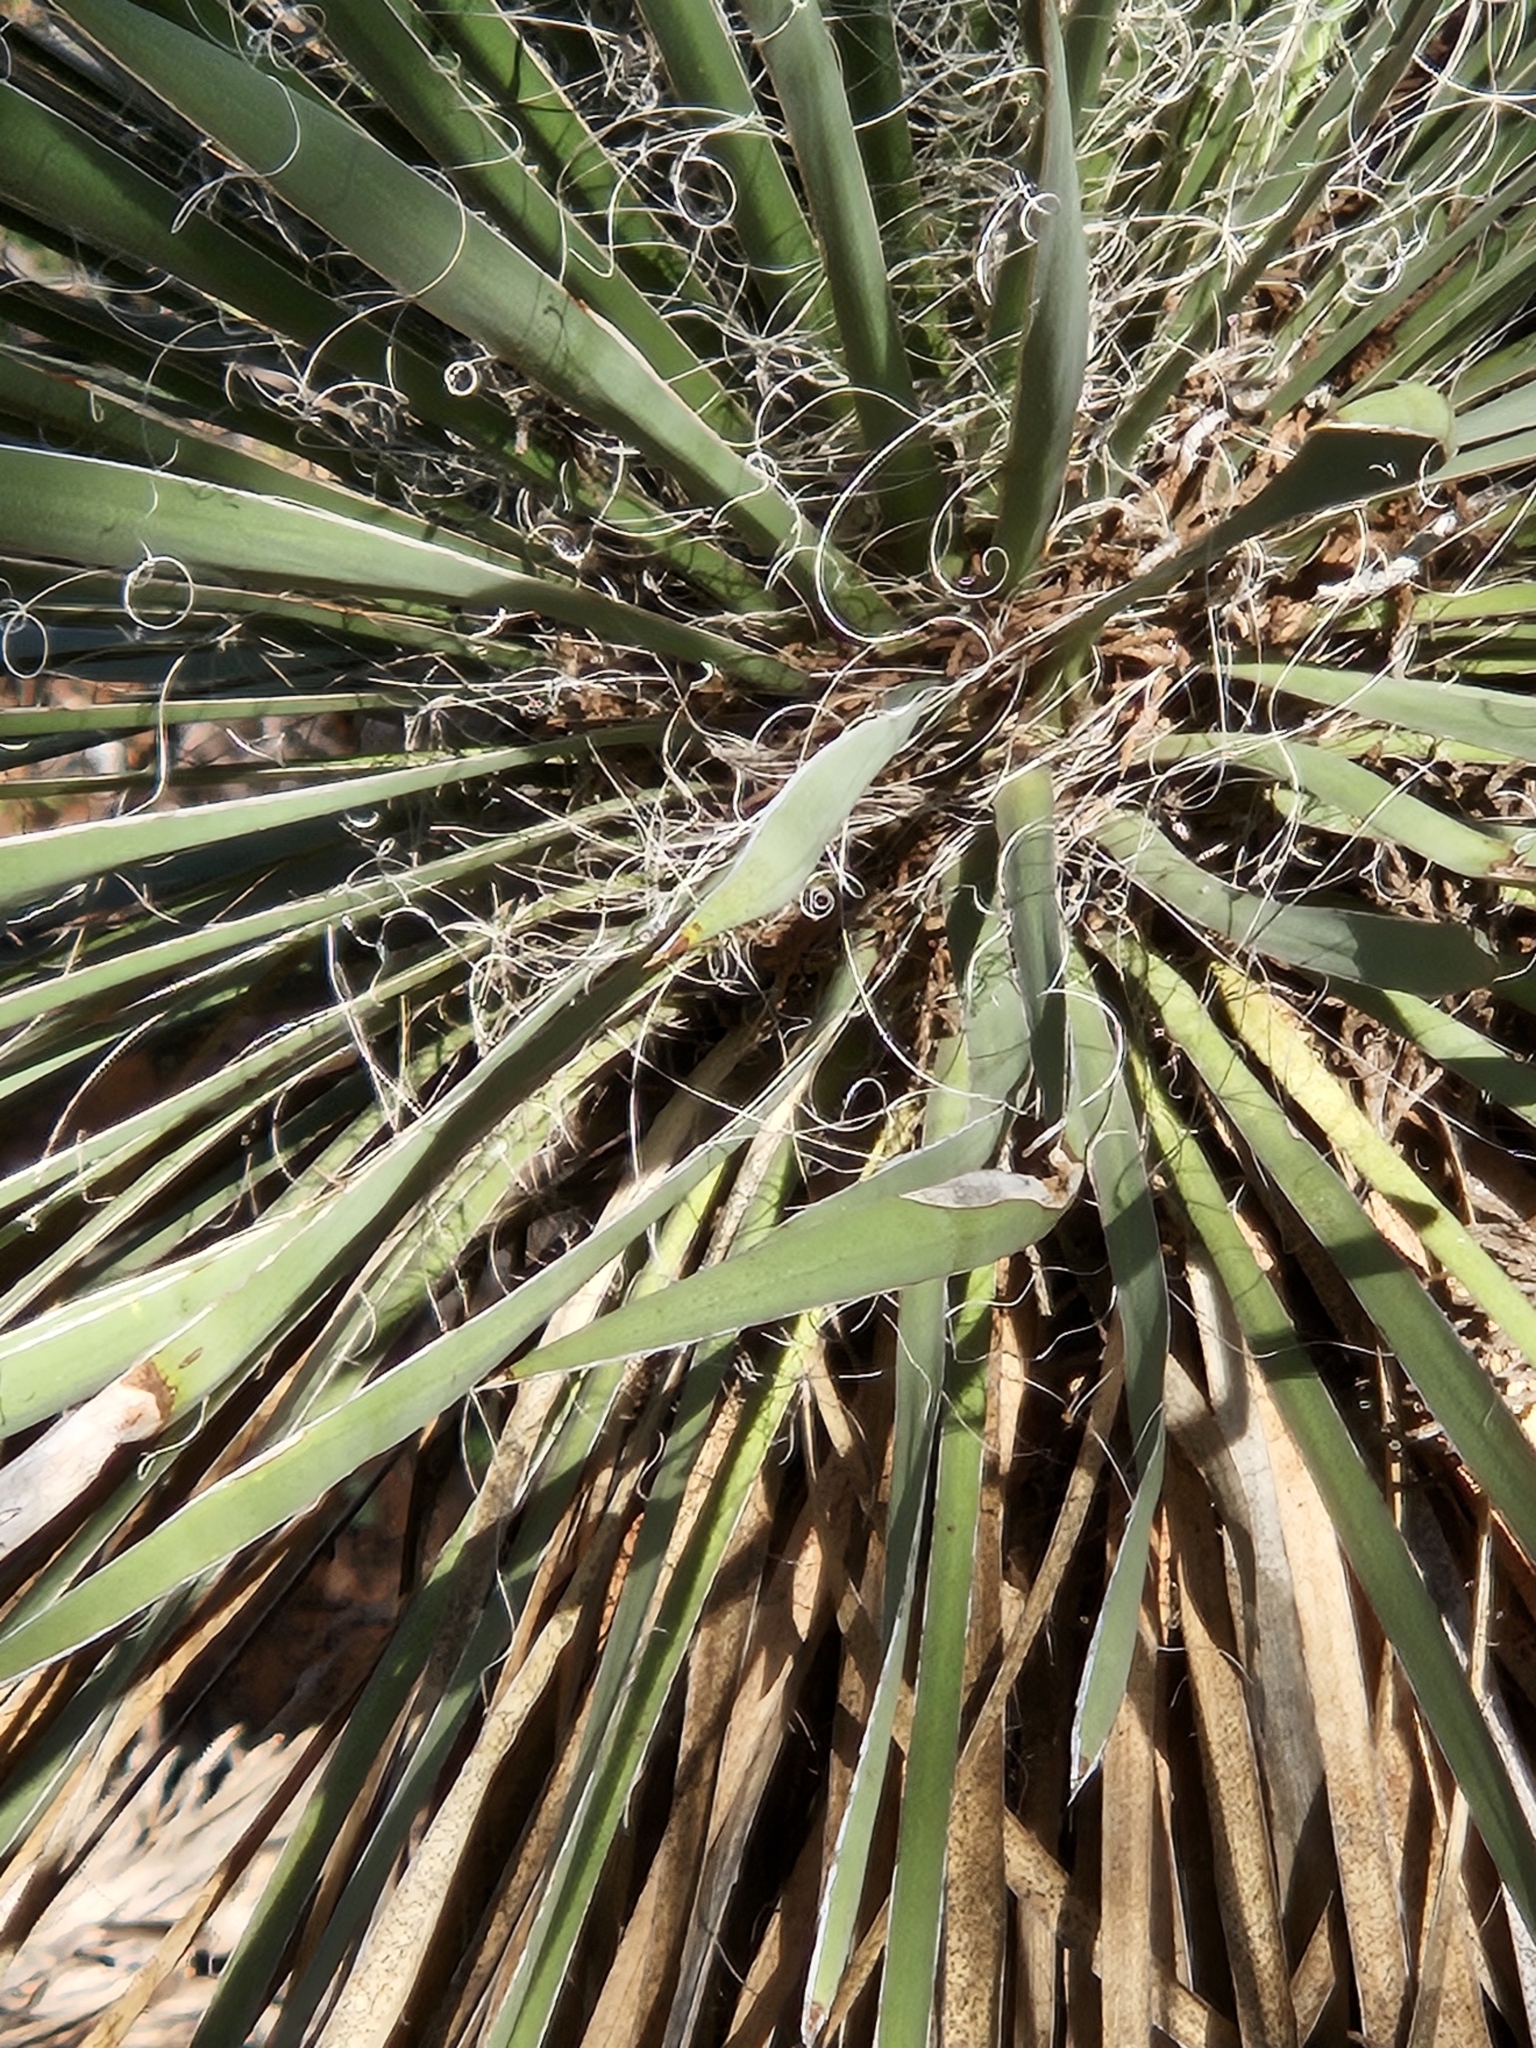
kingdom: Plantae
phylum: Tracheophyta
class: Liliopsida
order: Asparagales
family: Asparagaceae
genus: Yucca
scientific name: Yucca constricta
